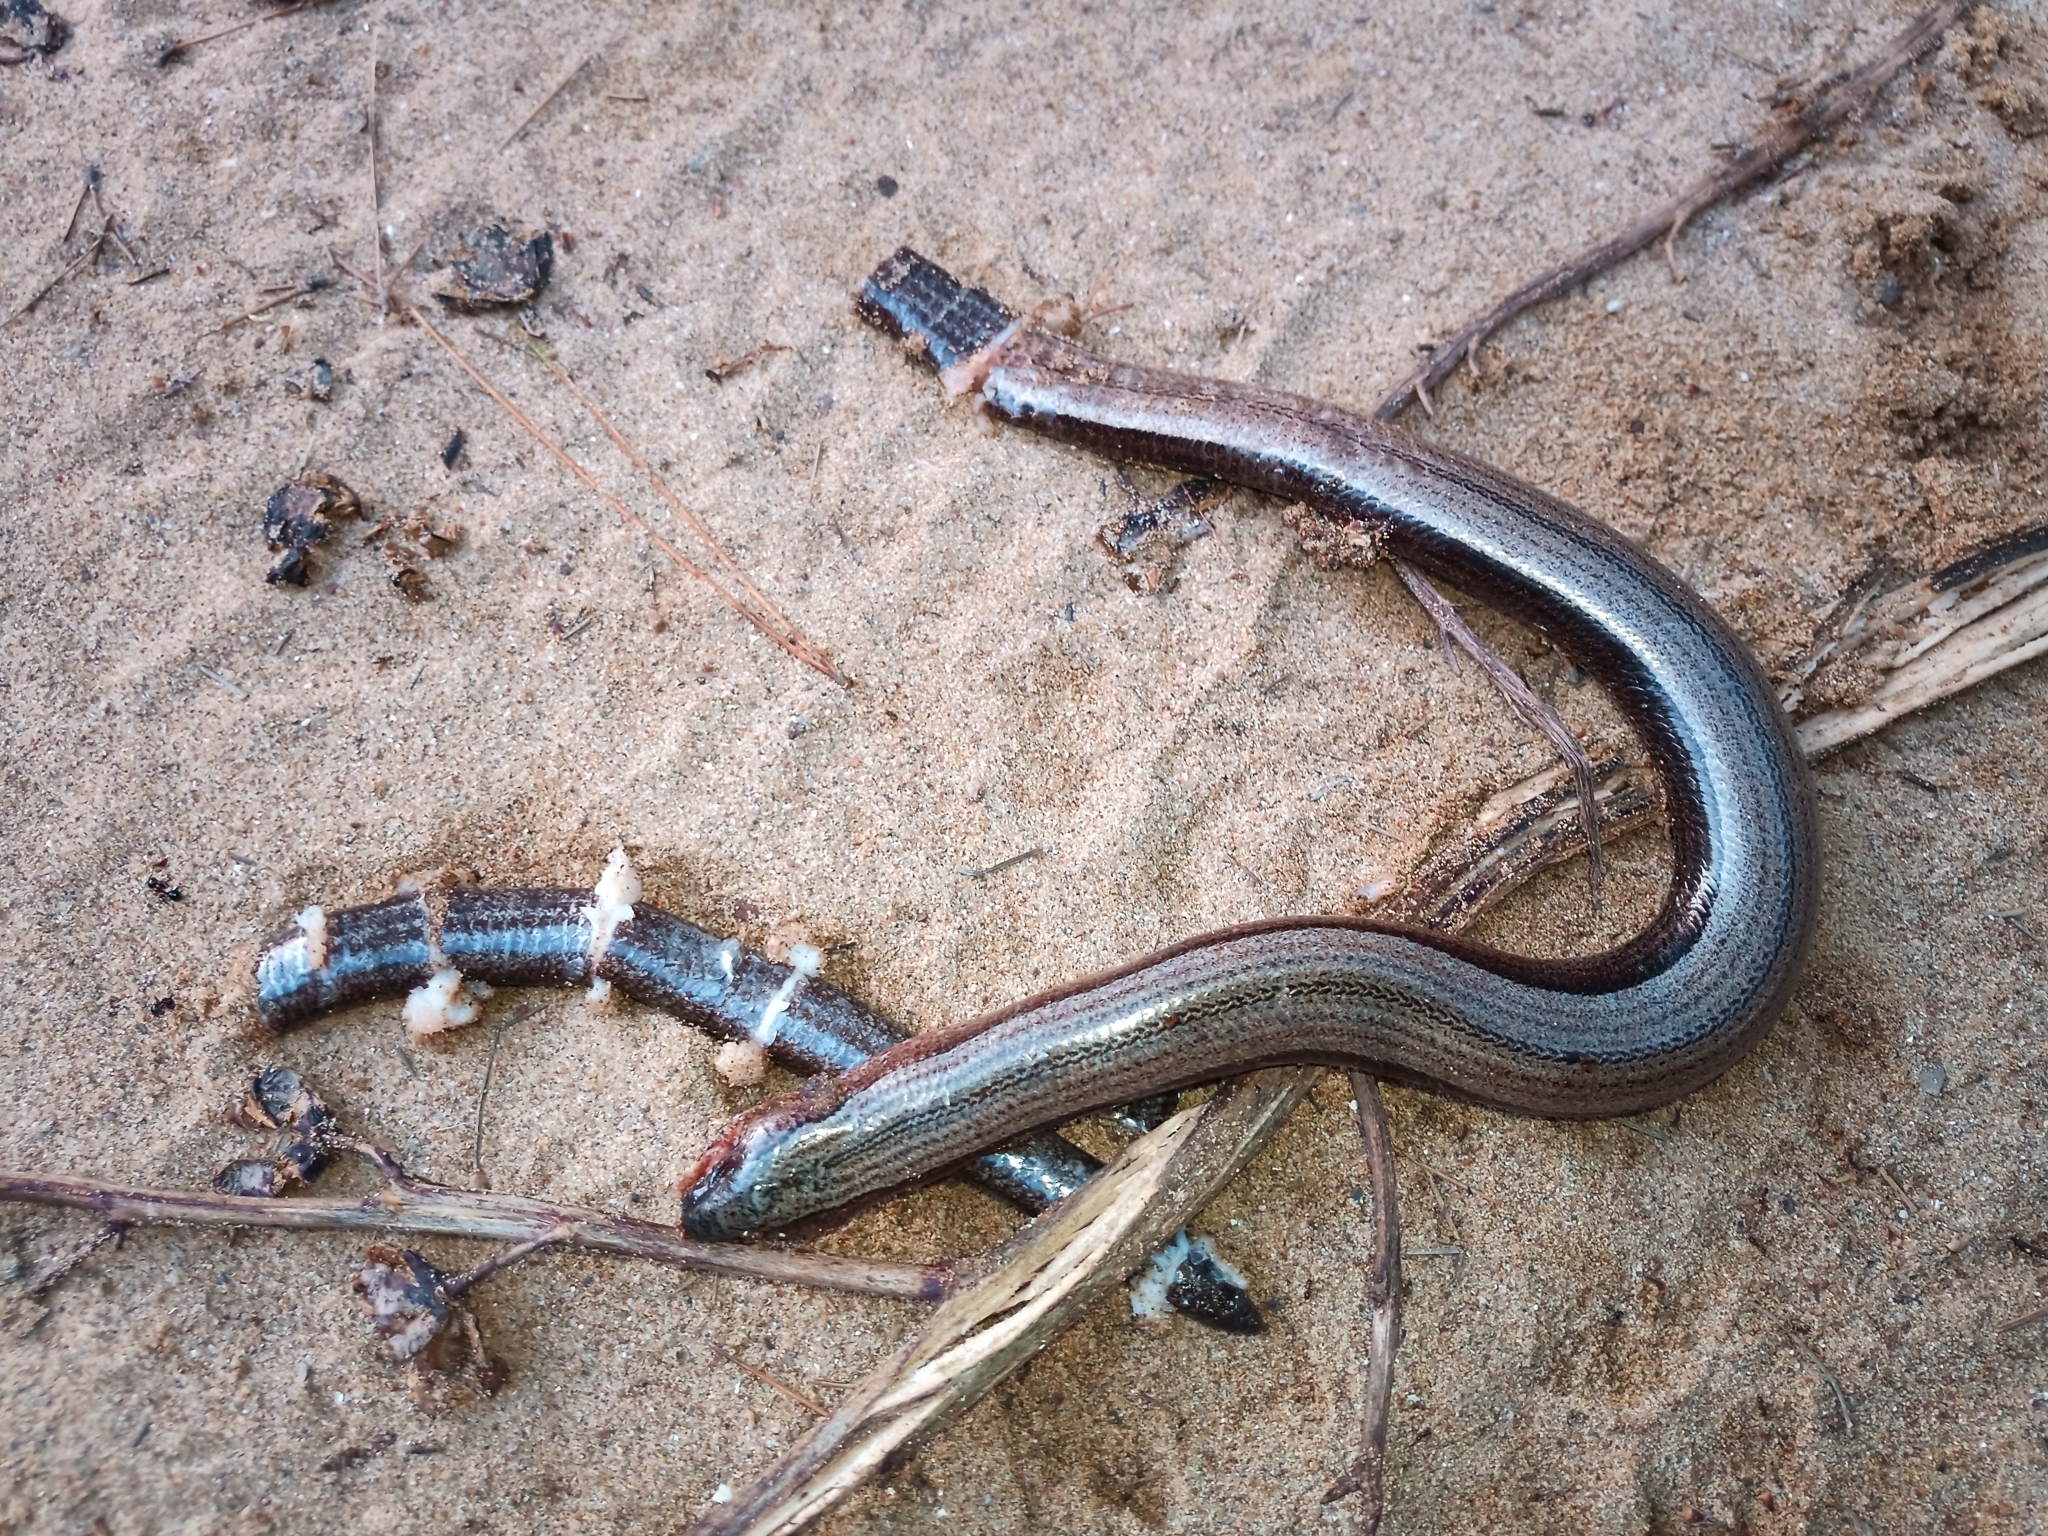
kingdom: Animalia
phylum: Chordata
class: Squamata
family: Anguidae
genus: Anguis
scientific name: Anguis cephallonica
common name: Peloponnese slow worm
